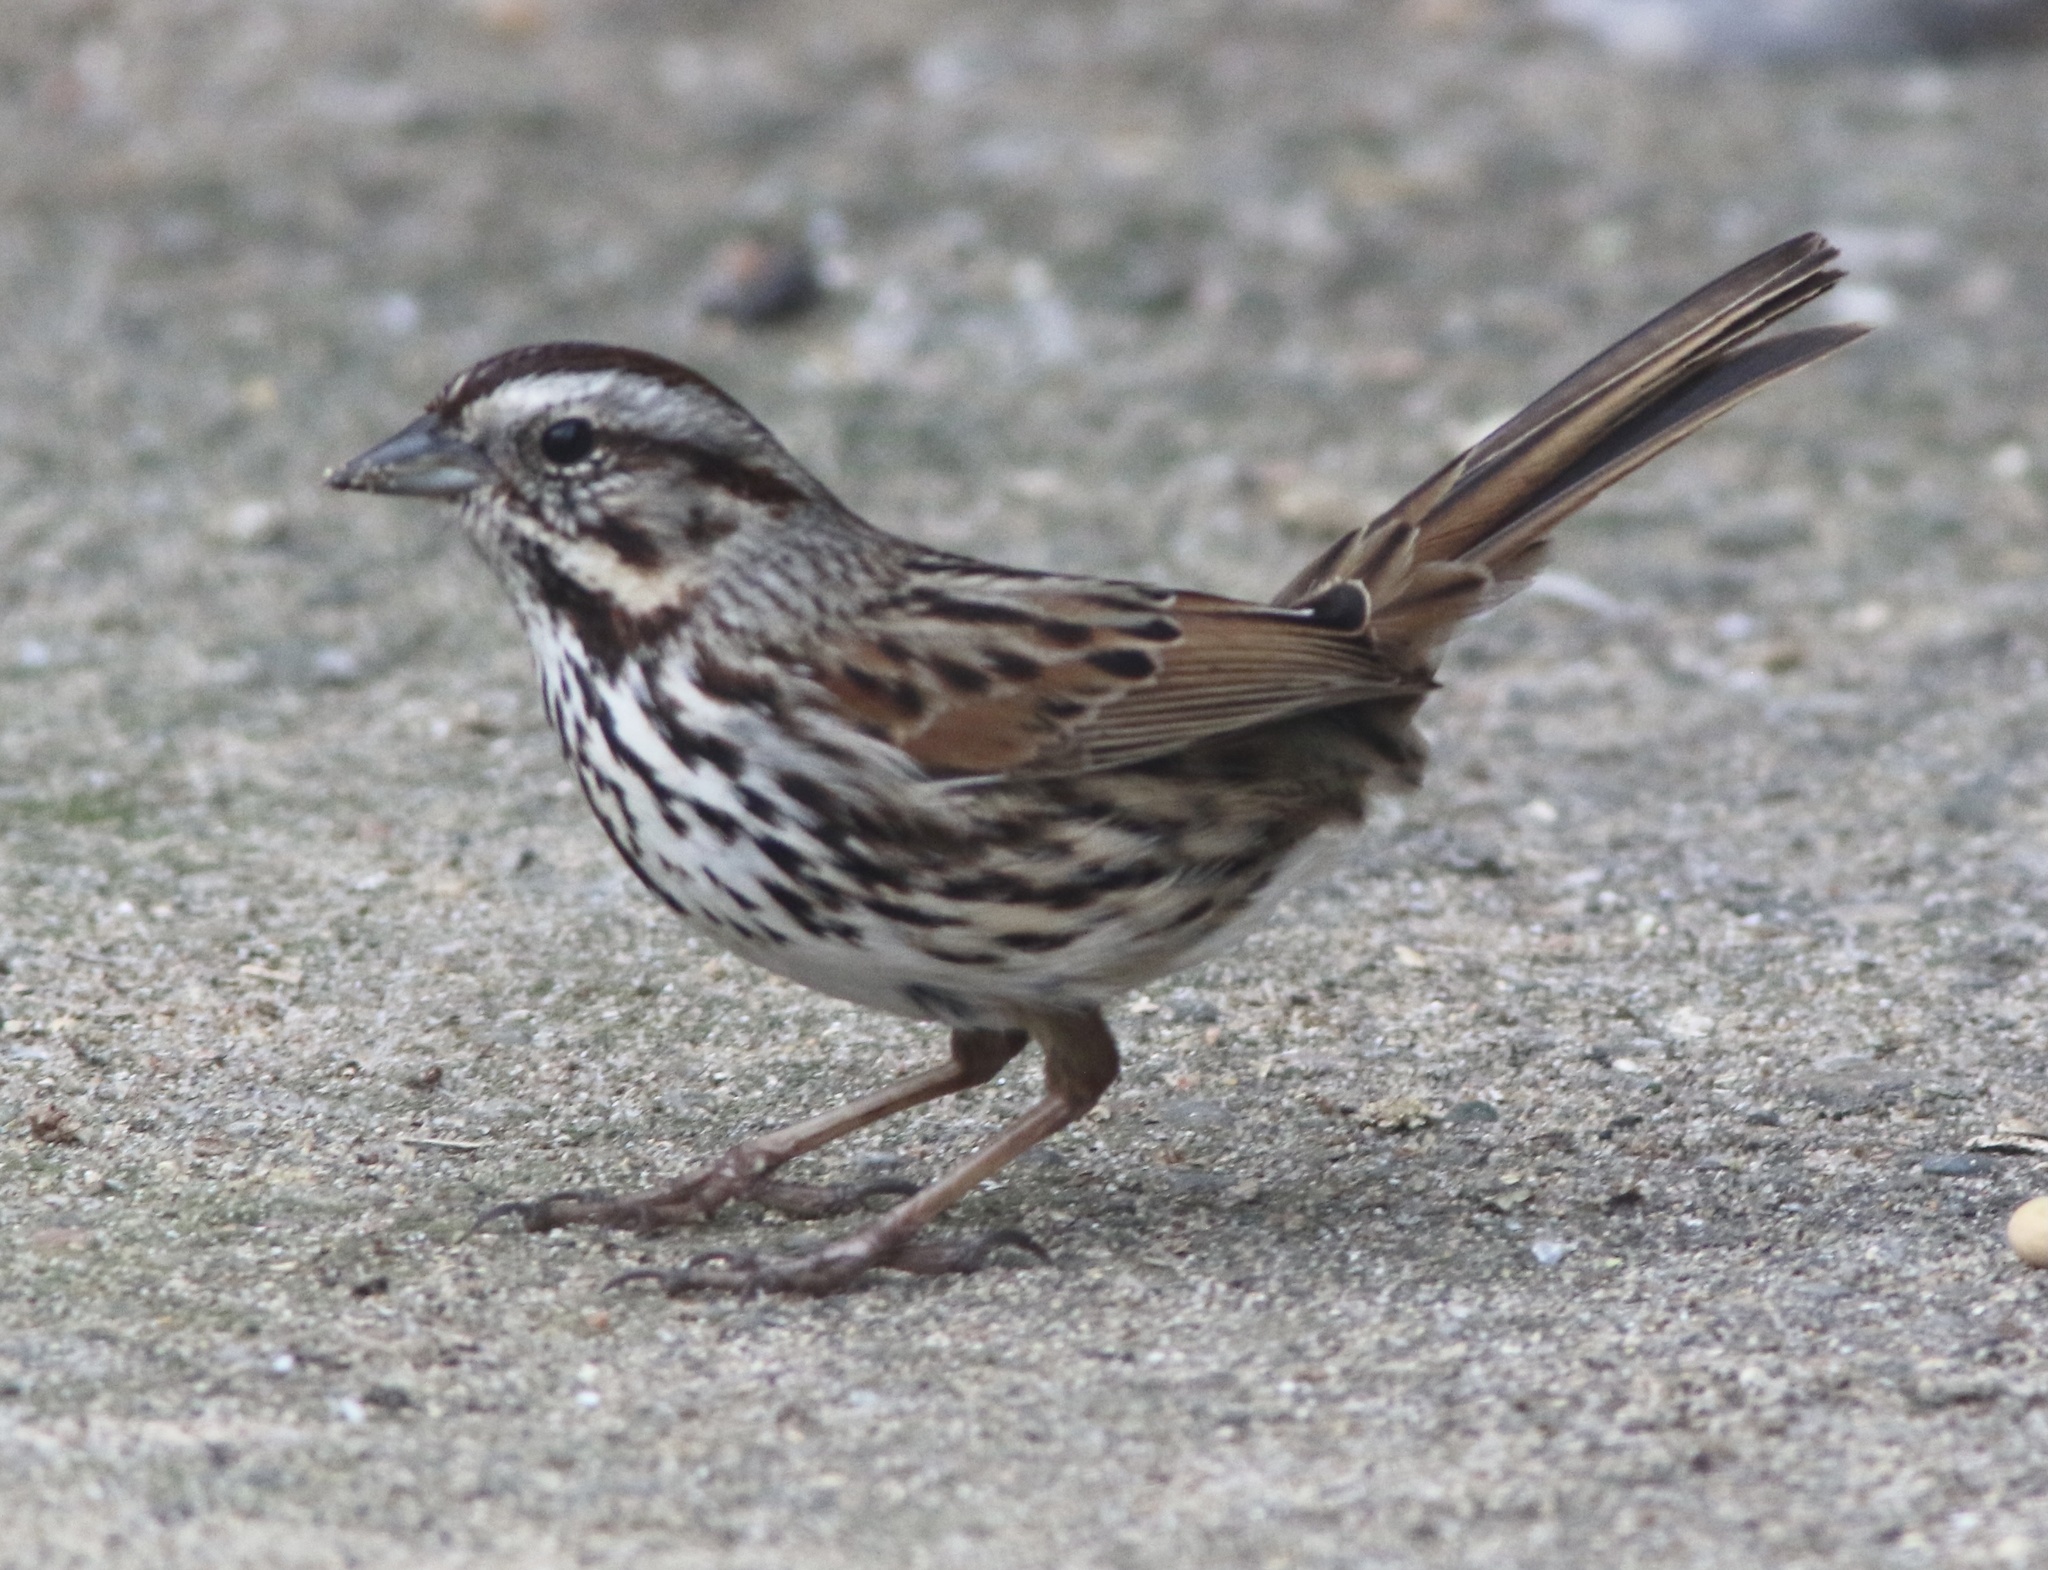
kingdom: Animalia
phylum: Chordata
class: Aves
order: Passeriformes
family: Passerellidae
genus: Melospiza
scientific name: Melospiza melodia
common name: Song sparrow
